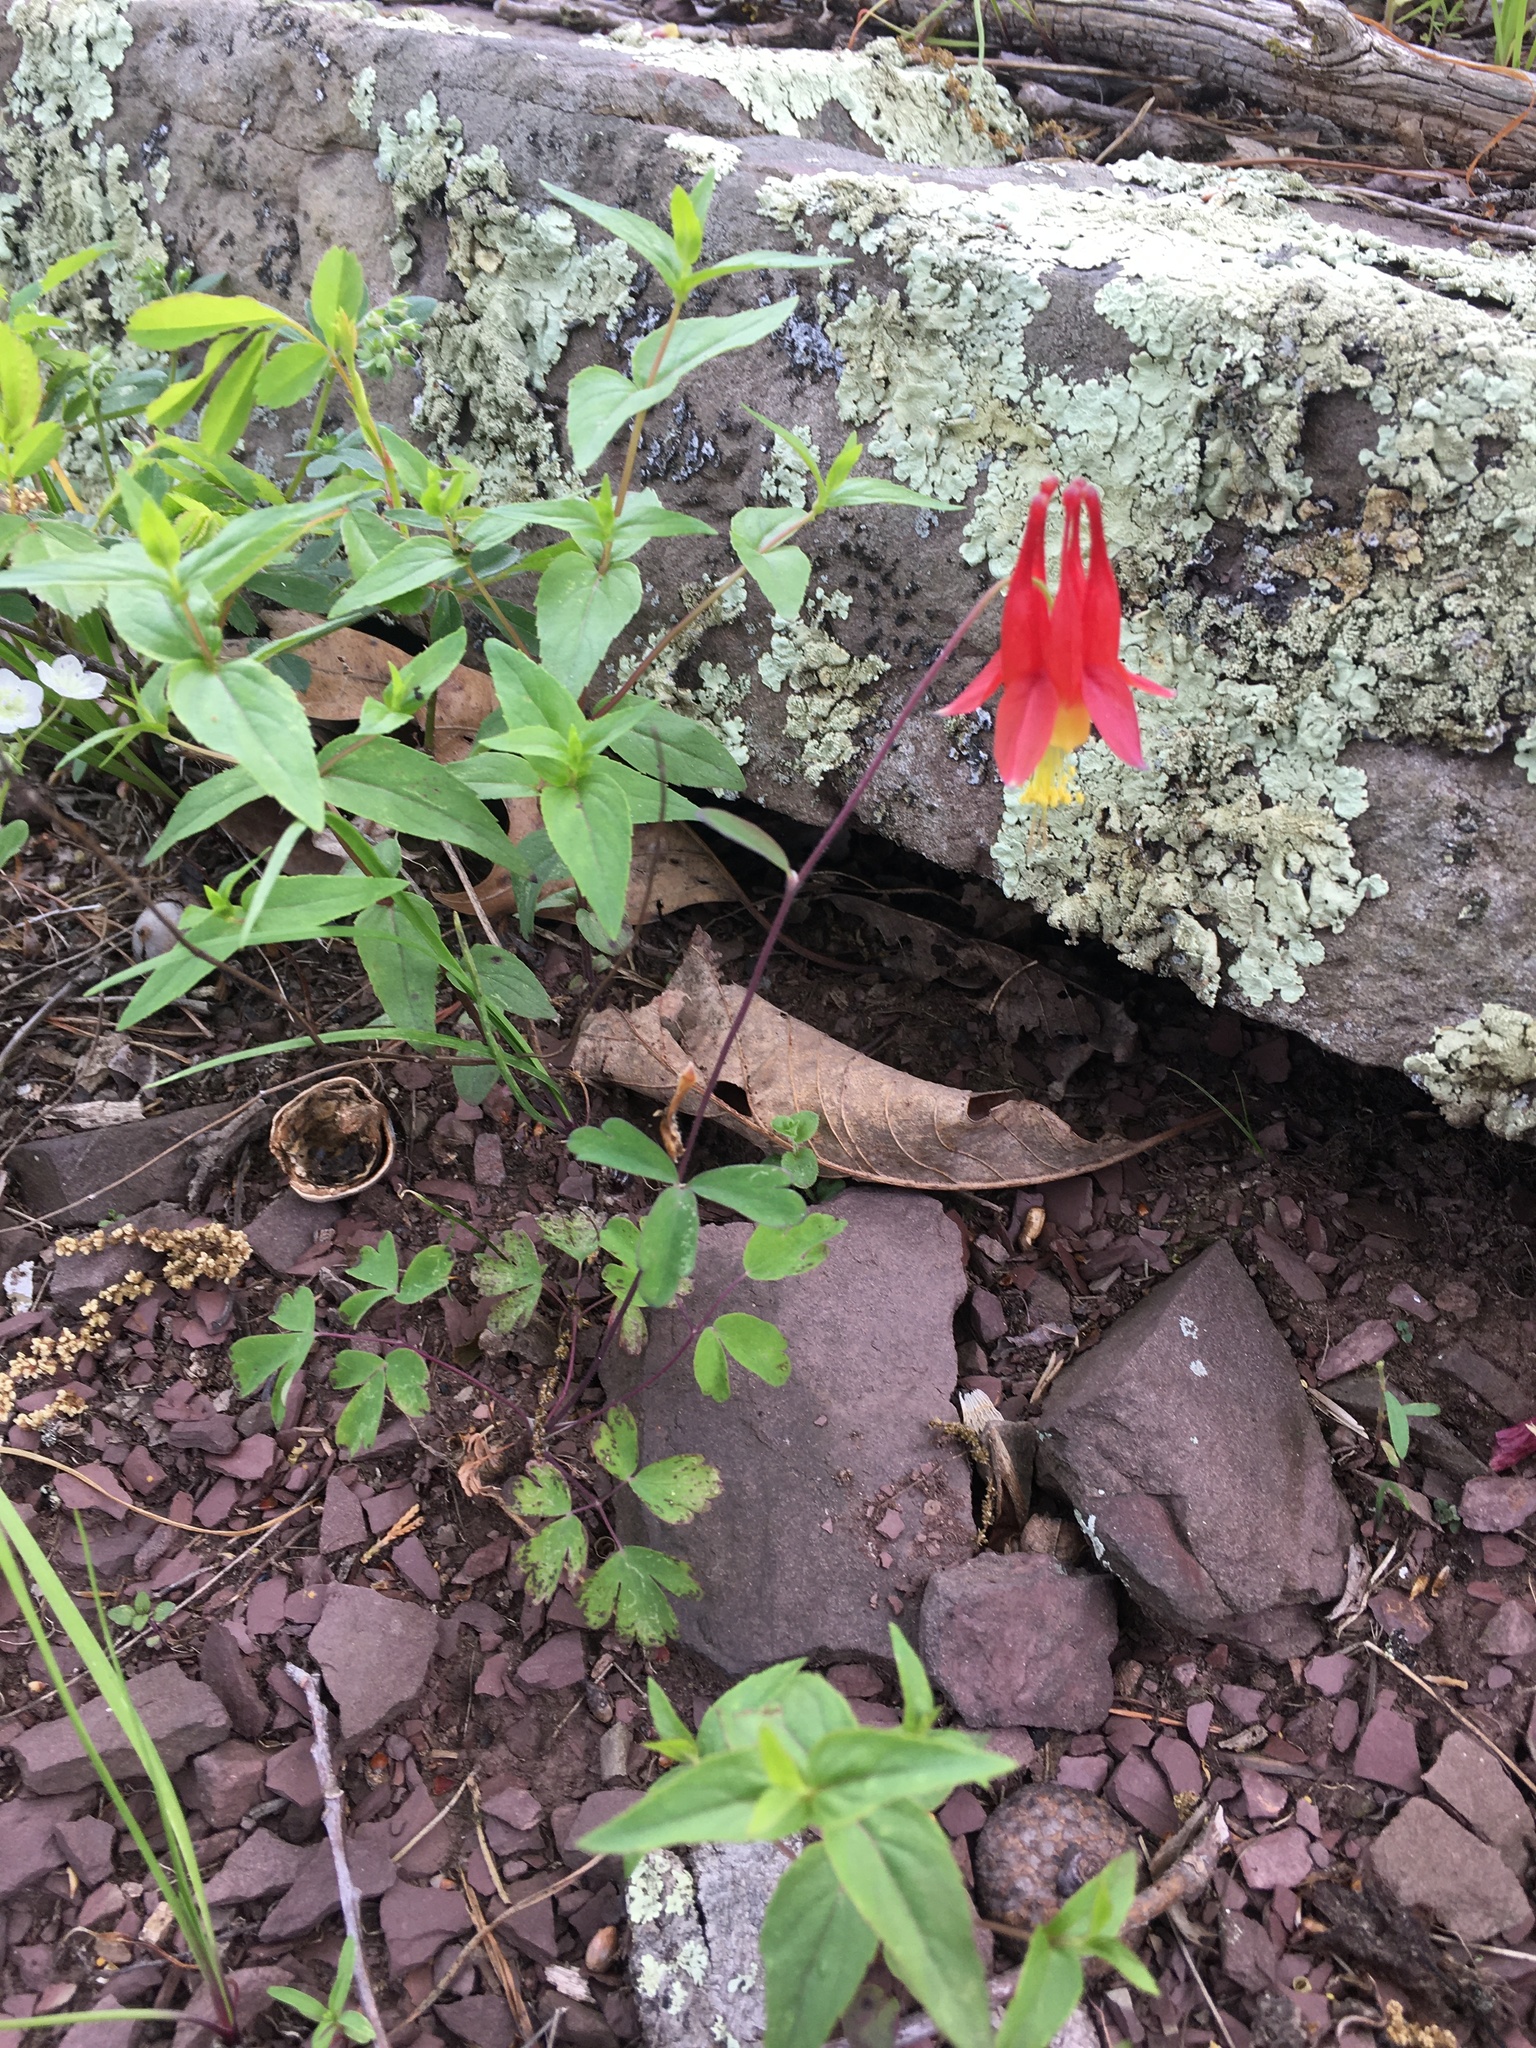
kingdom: Plantae
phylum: Tracheophyta
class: Magnoliopsida
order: Ranunculales
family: Ranunculaceae
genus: Aquilegia
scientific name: Aquilegia canadensis
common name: American columbine
